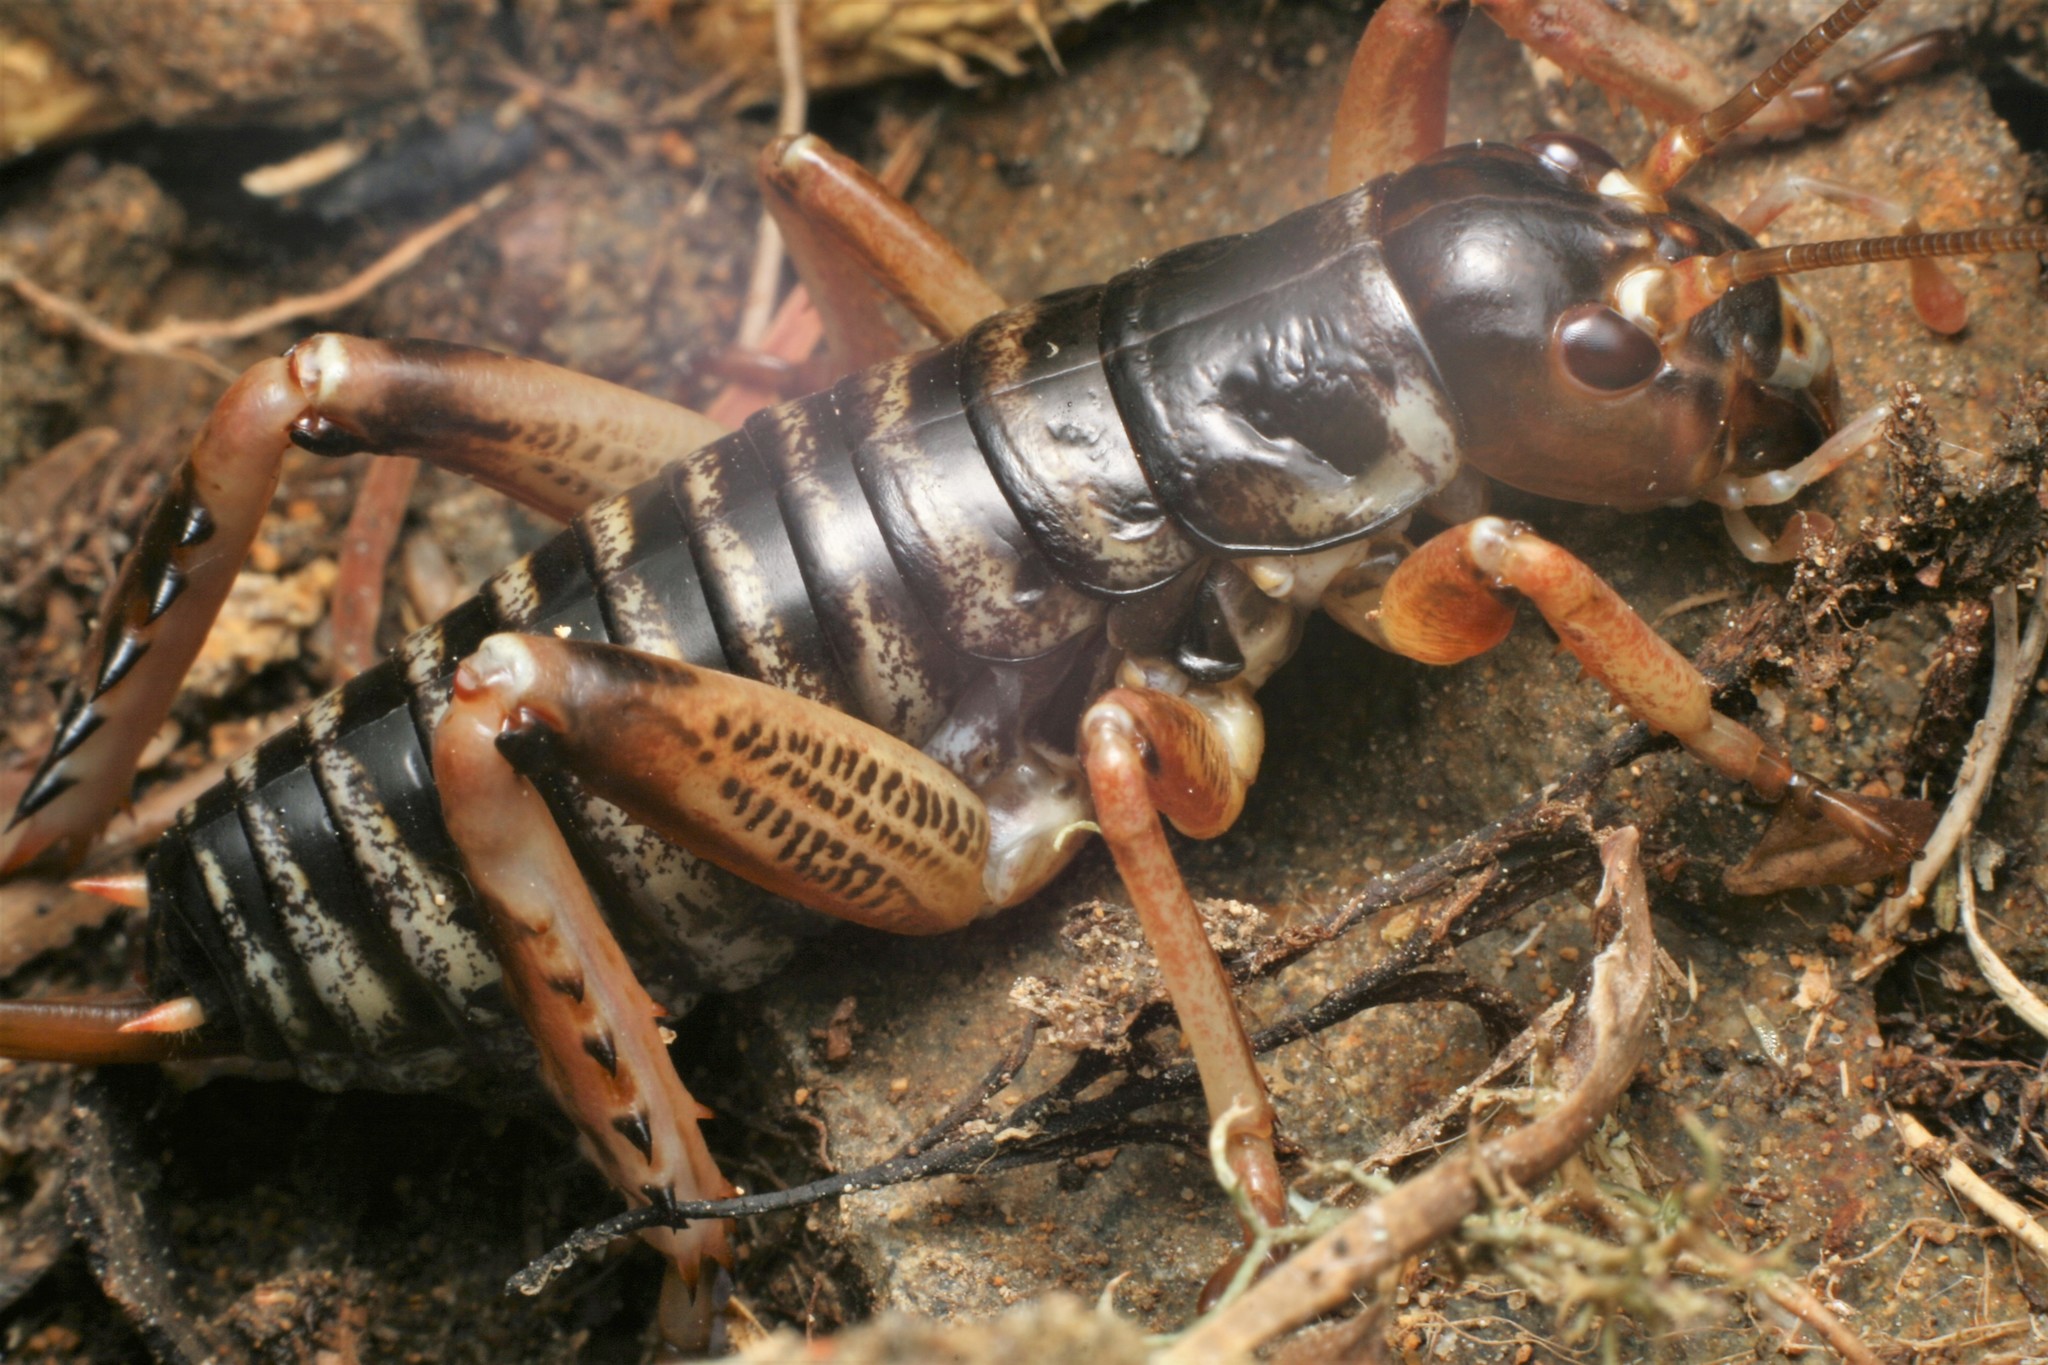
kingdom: Animalia
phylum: Arthropoda
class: Insecta
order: Orthoptera
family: Anostostomatidae
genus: Hemideina
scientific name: Hemideina maori
